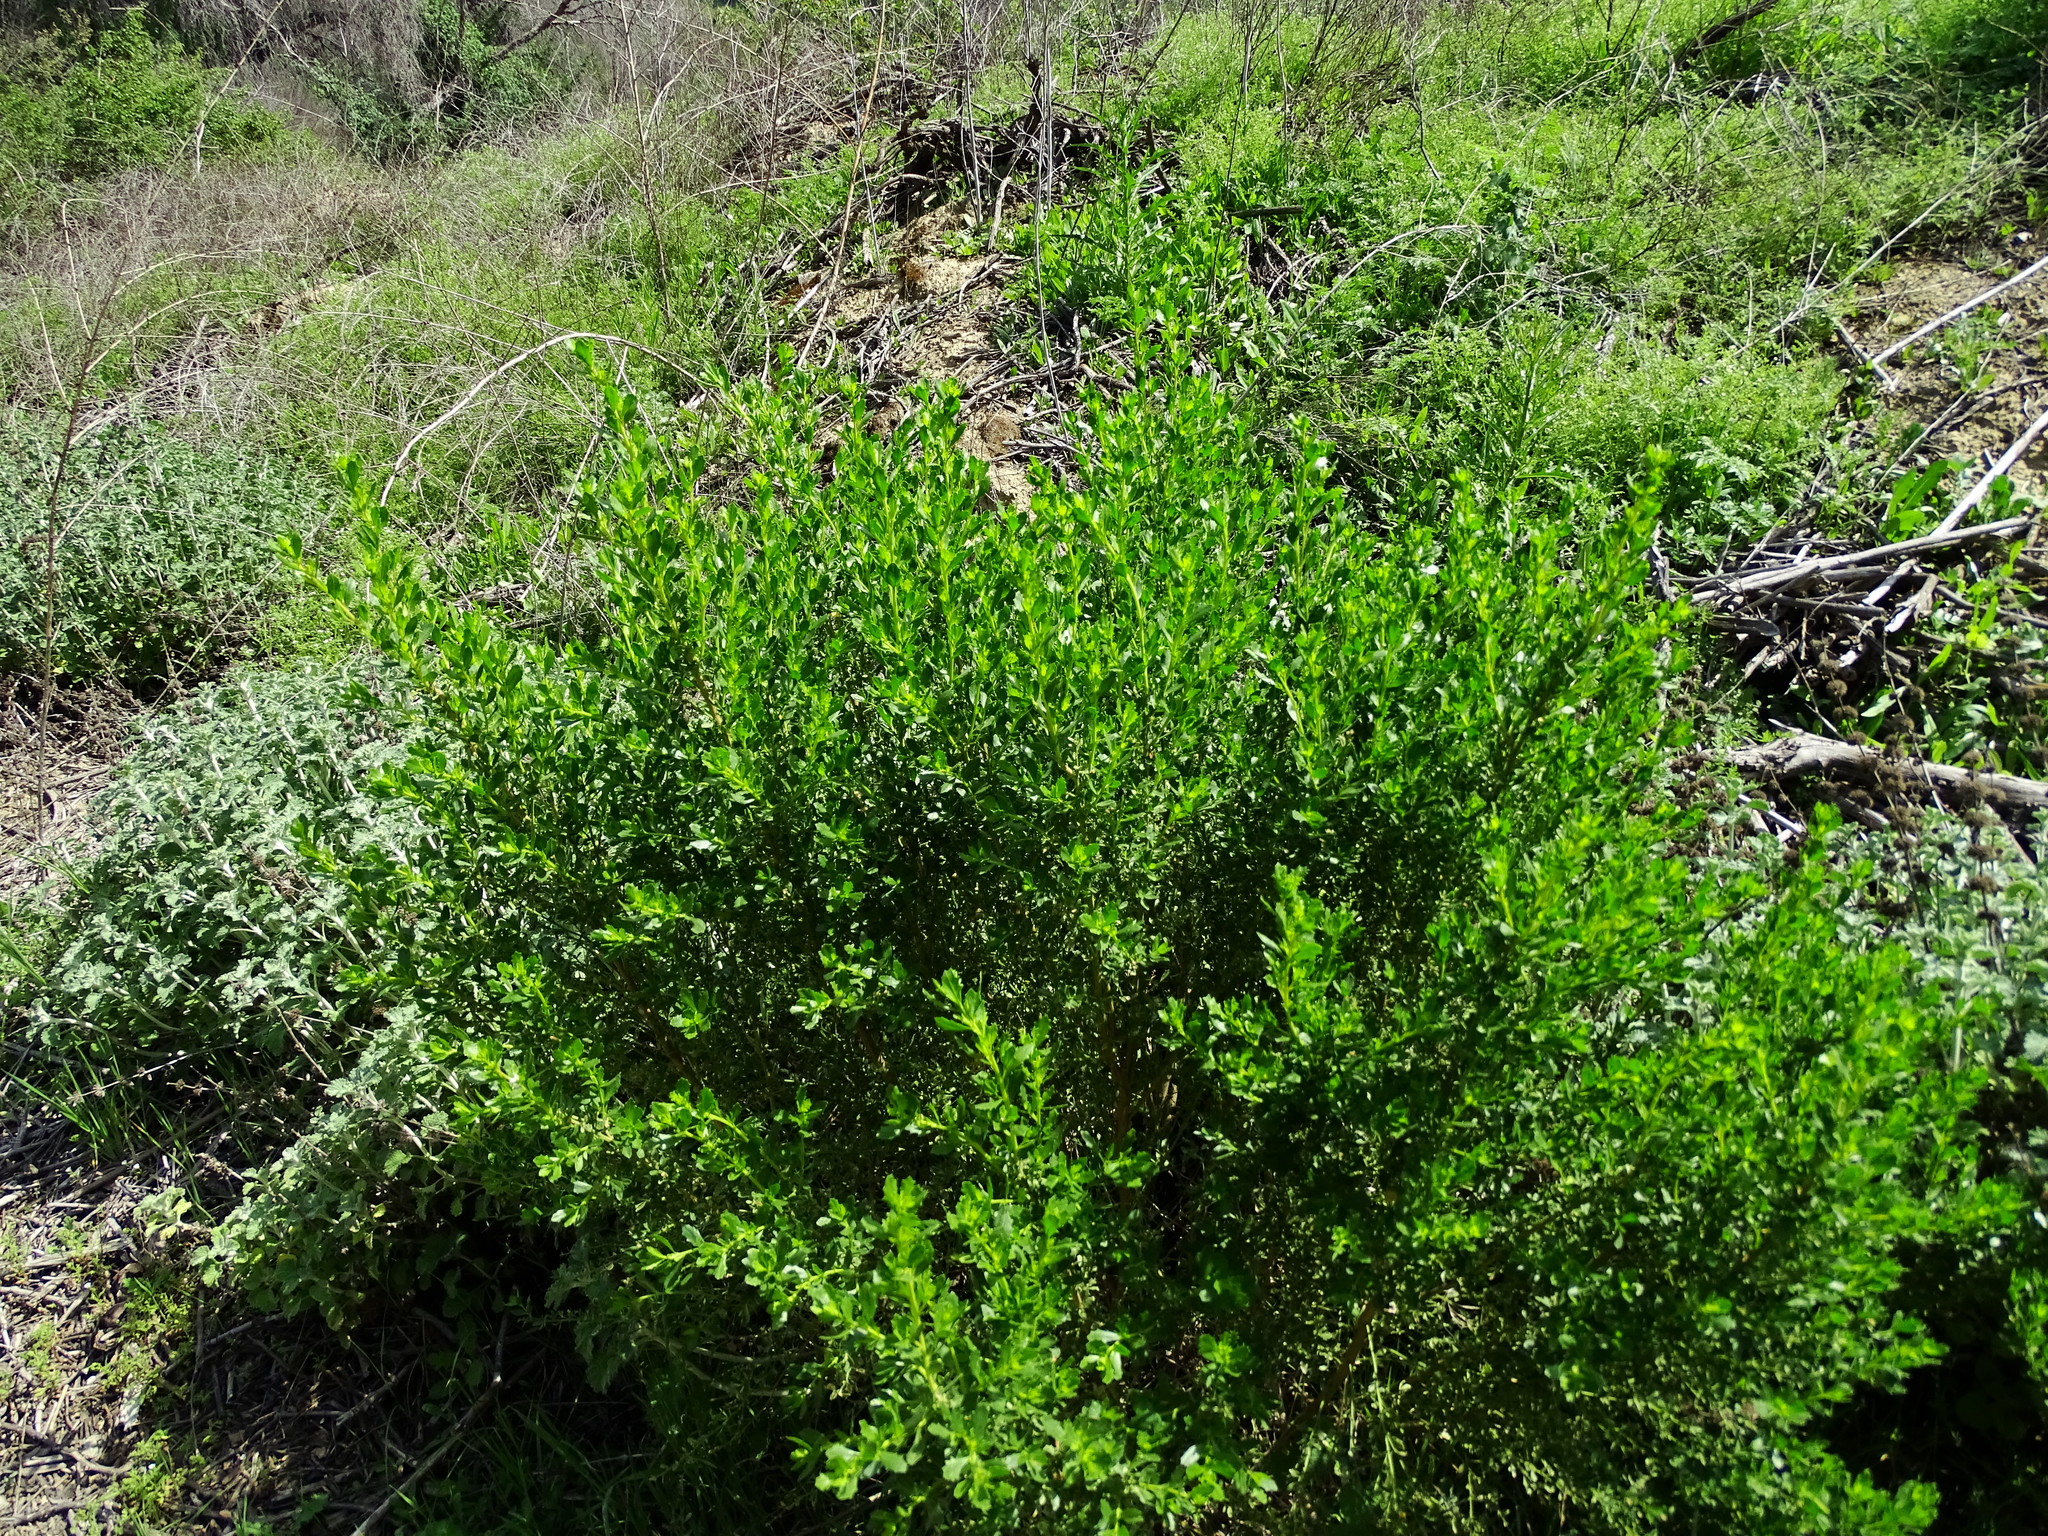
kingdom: Plantae
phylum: Tracheophyta
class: Magnoliopsida
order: Asterales
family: Asteraceae
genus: Baccharis
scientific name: Baccharis pilularis
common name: Coyotebrush
